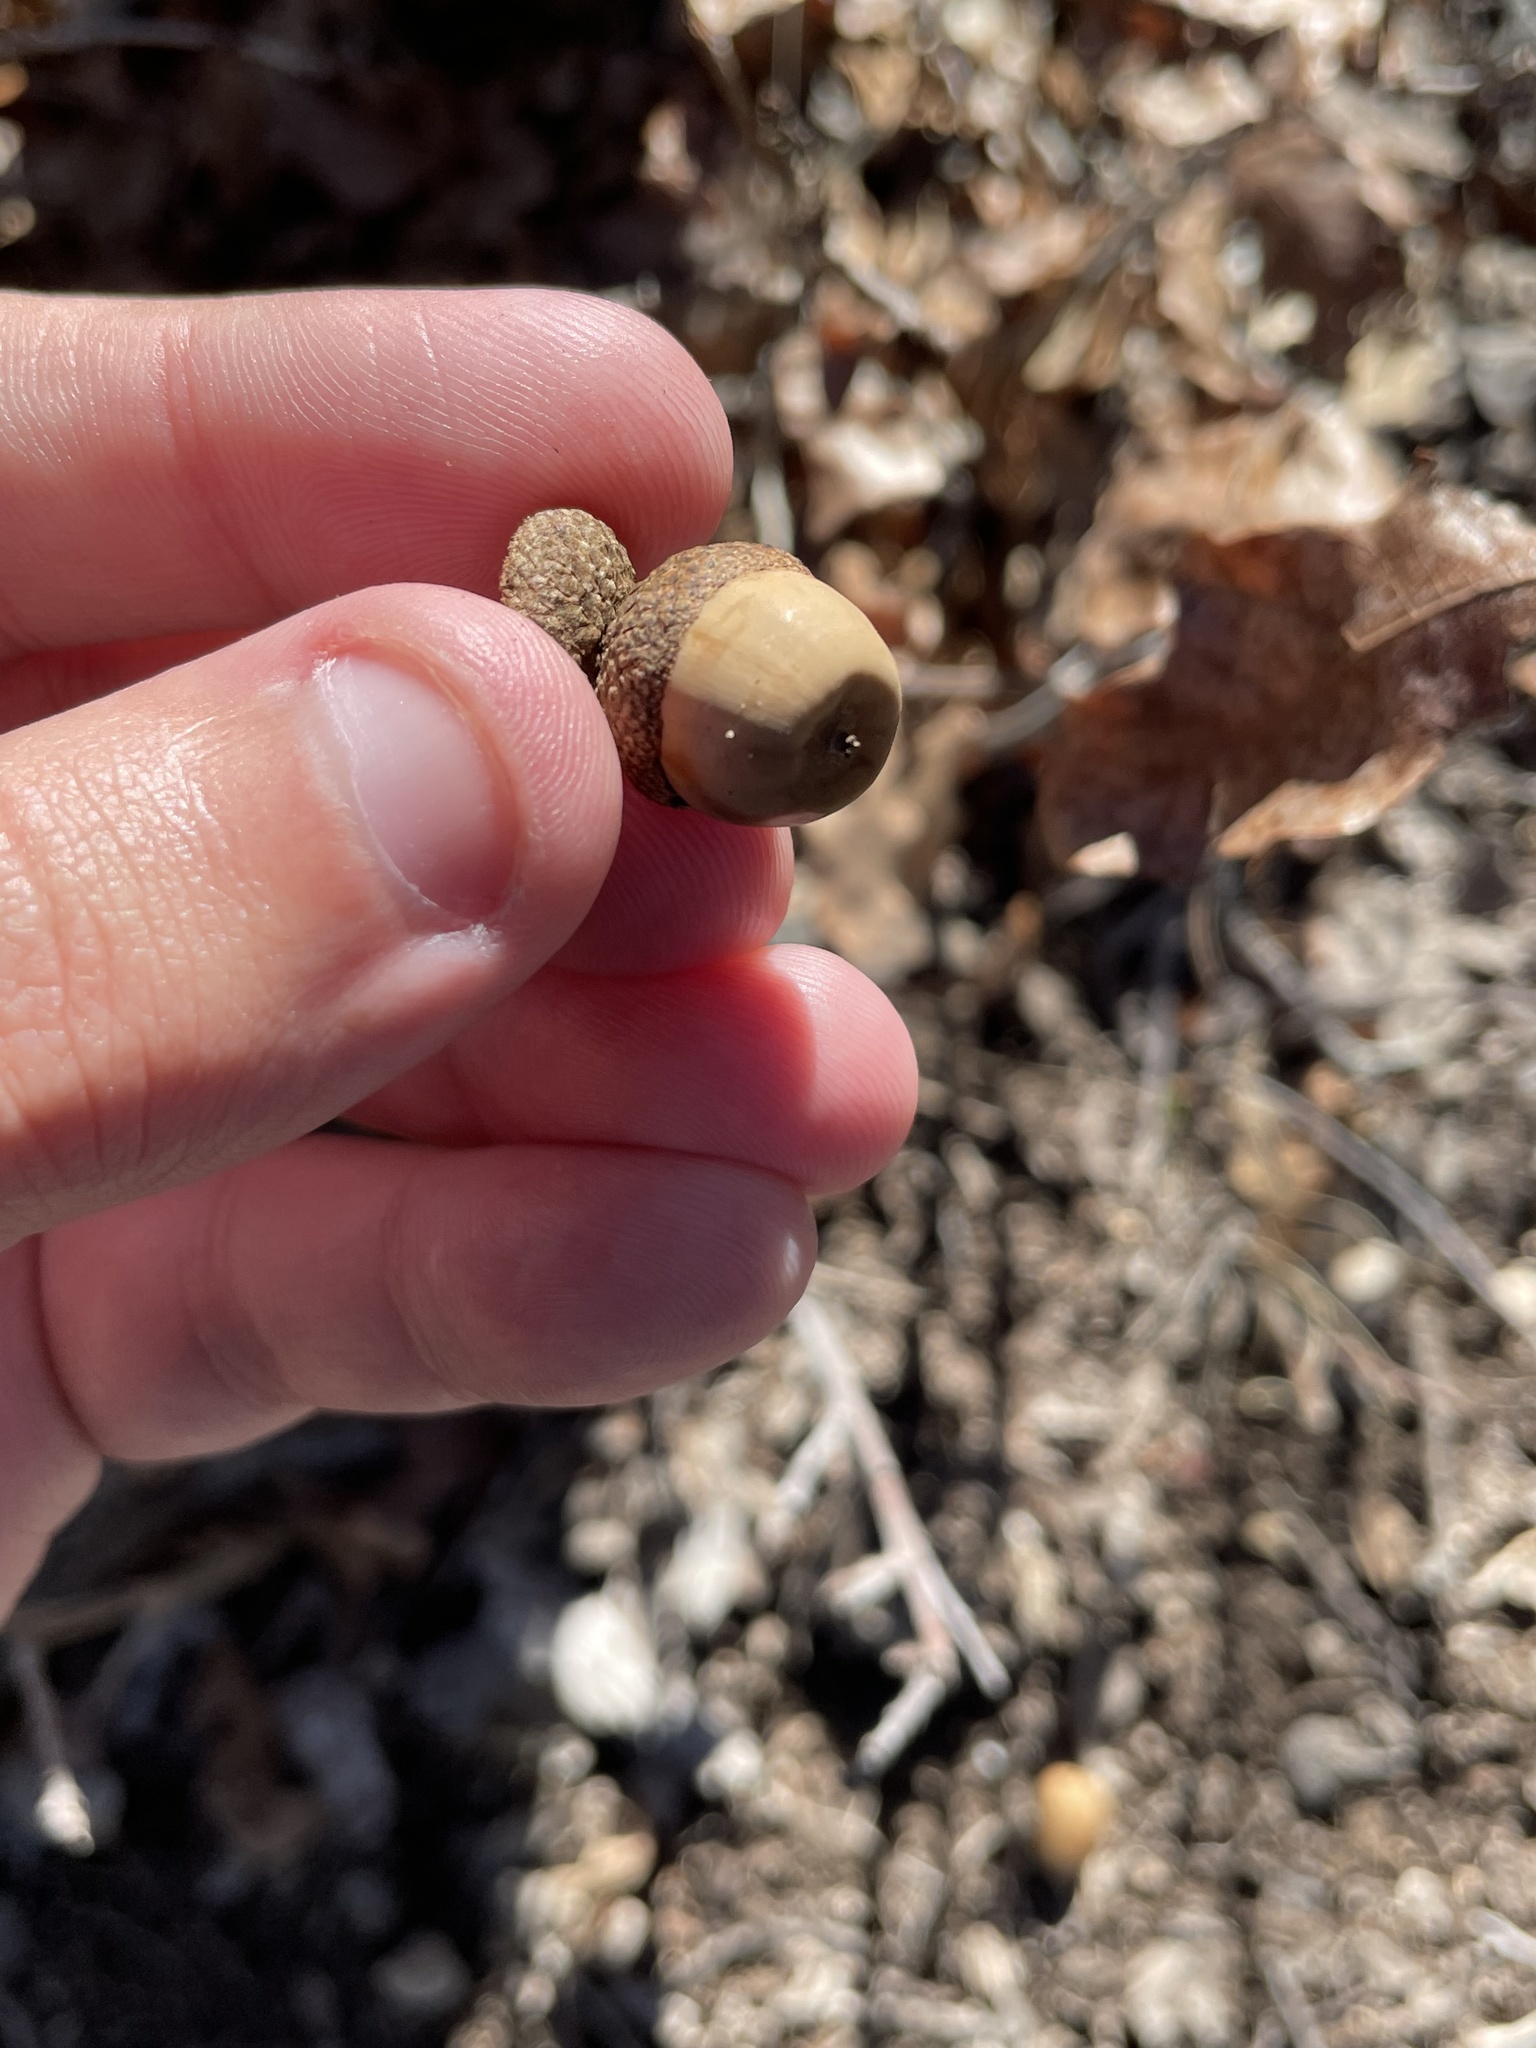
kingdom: Plantae
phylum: Tracheophyta
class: Magnoliopsida
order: Fagales
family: Fagaceae
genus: Quercus
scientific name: Quercus sinuata
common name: Durand oak
